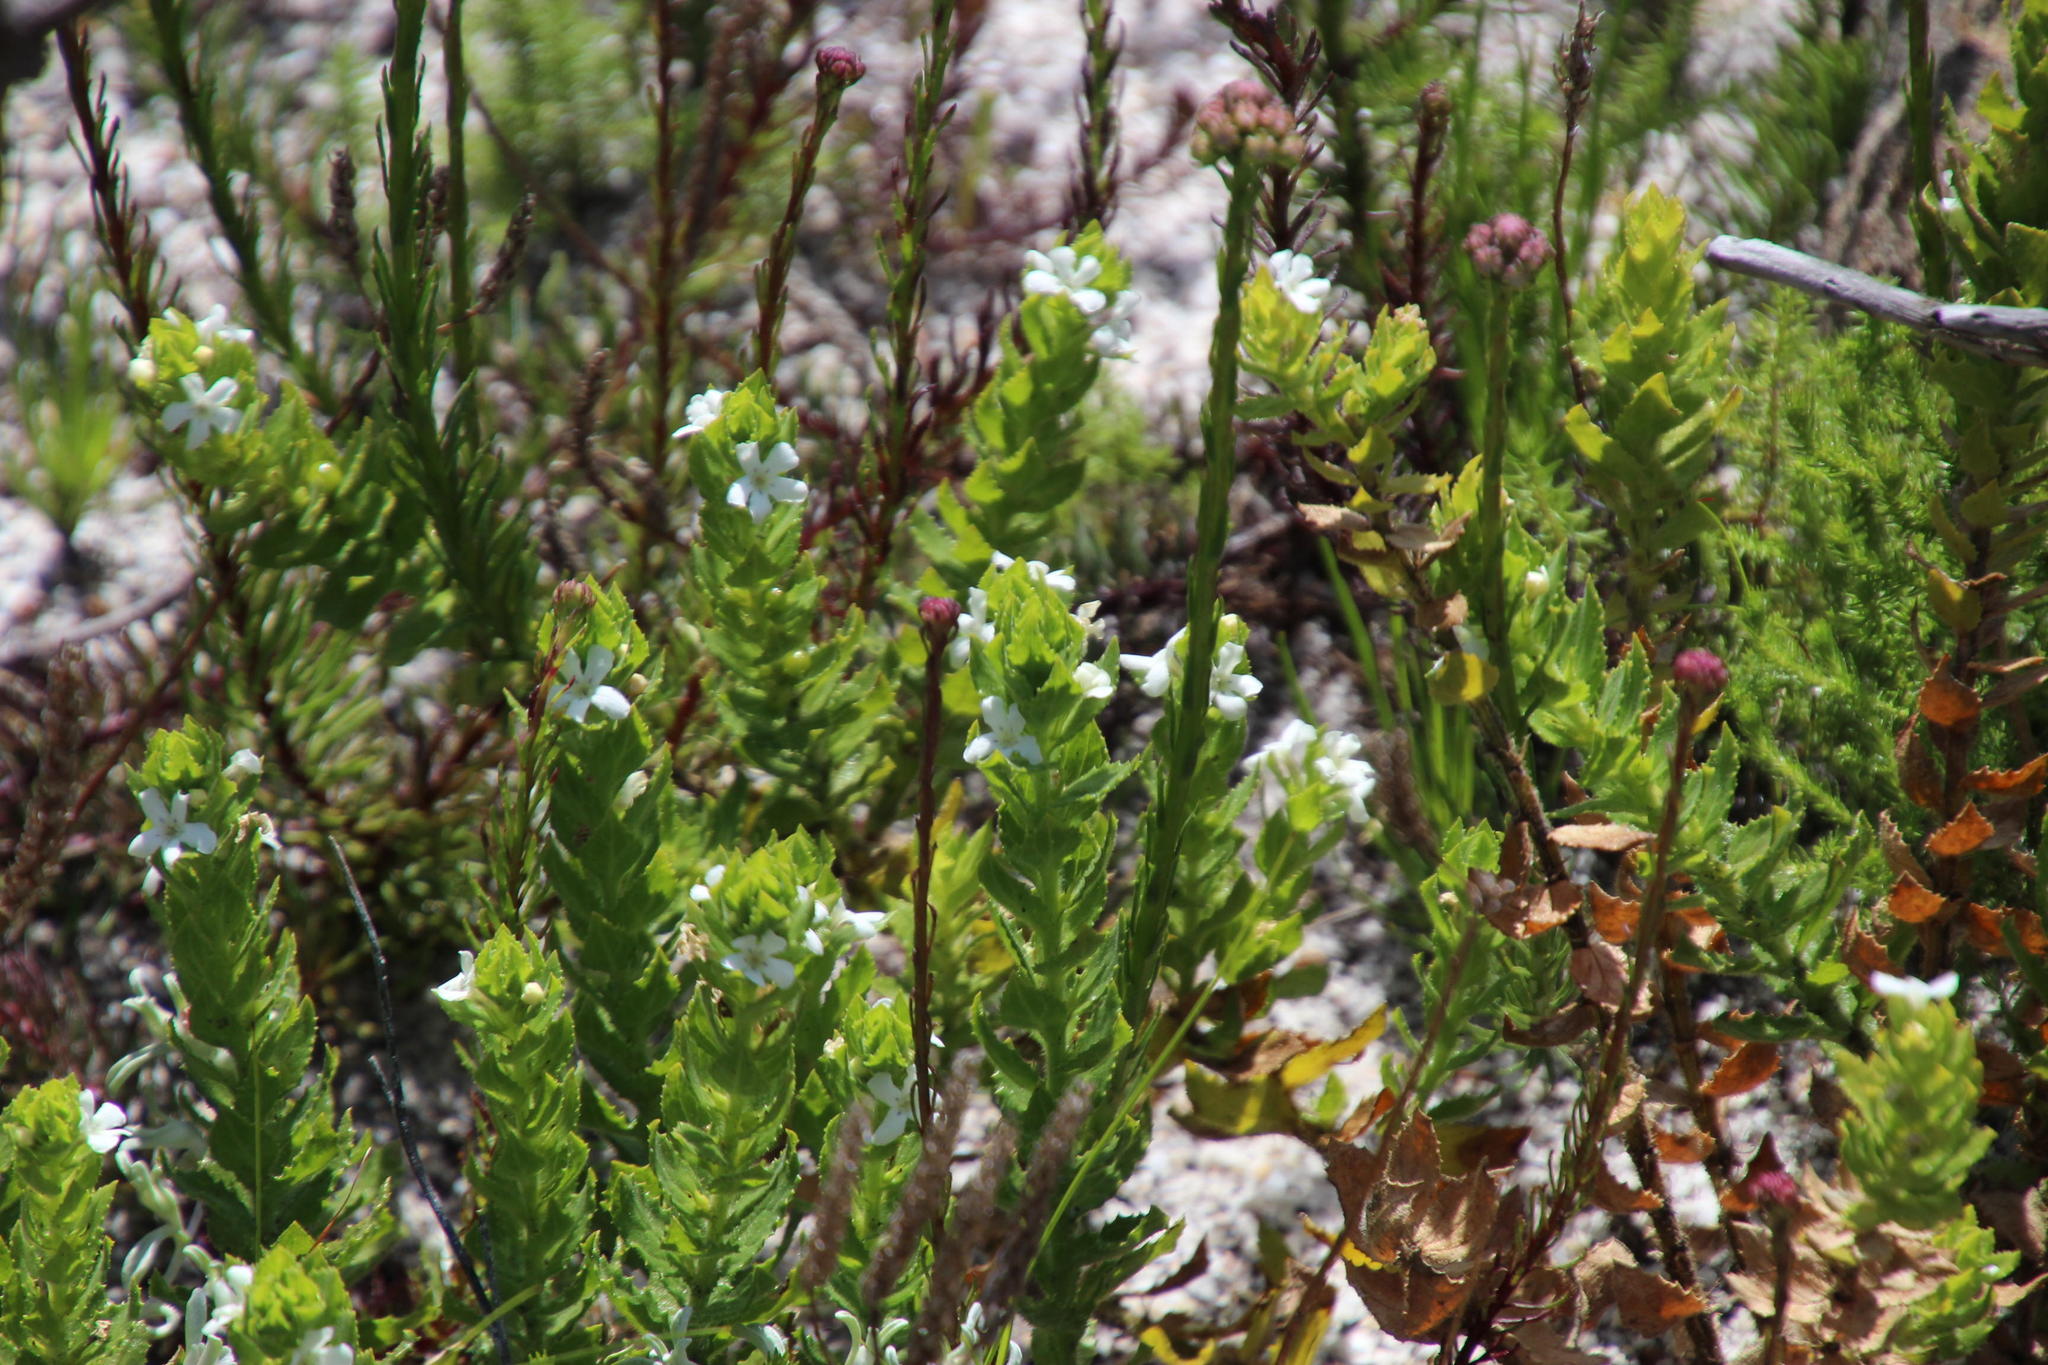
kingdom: Plantae
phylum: Tracheophyta
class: Magnoliopsida
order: Lamiales
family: Scrophulariaceae
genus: Oftia
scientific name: Oftia africana
